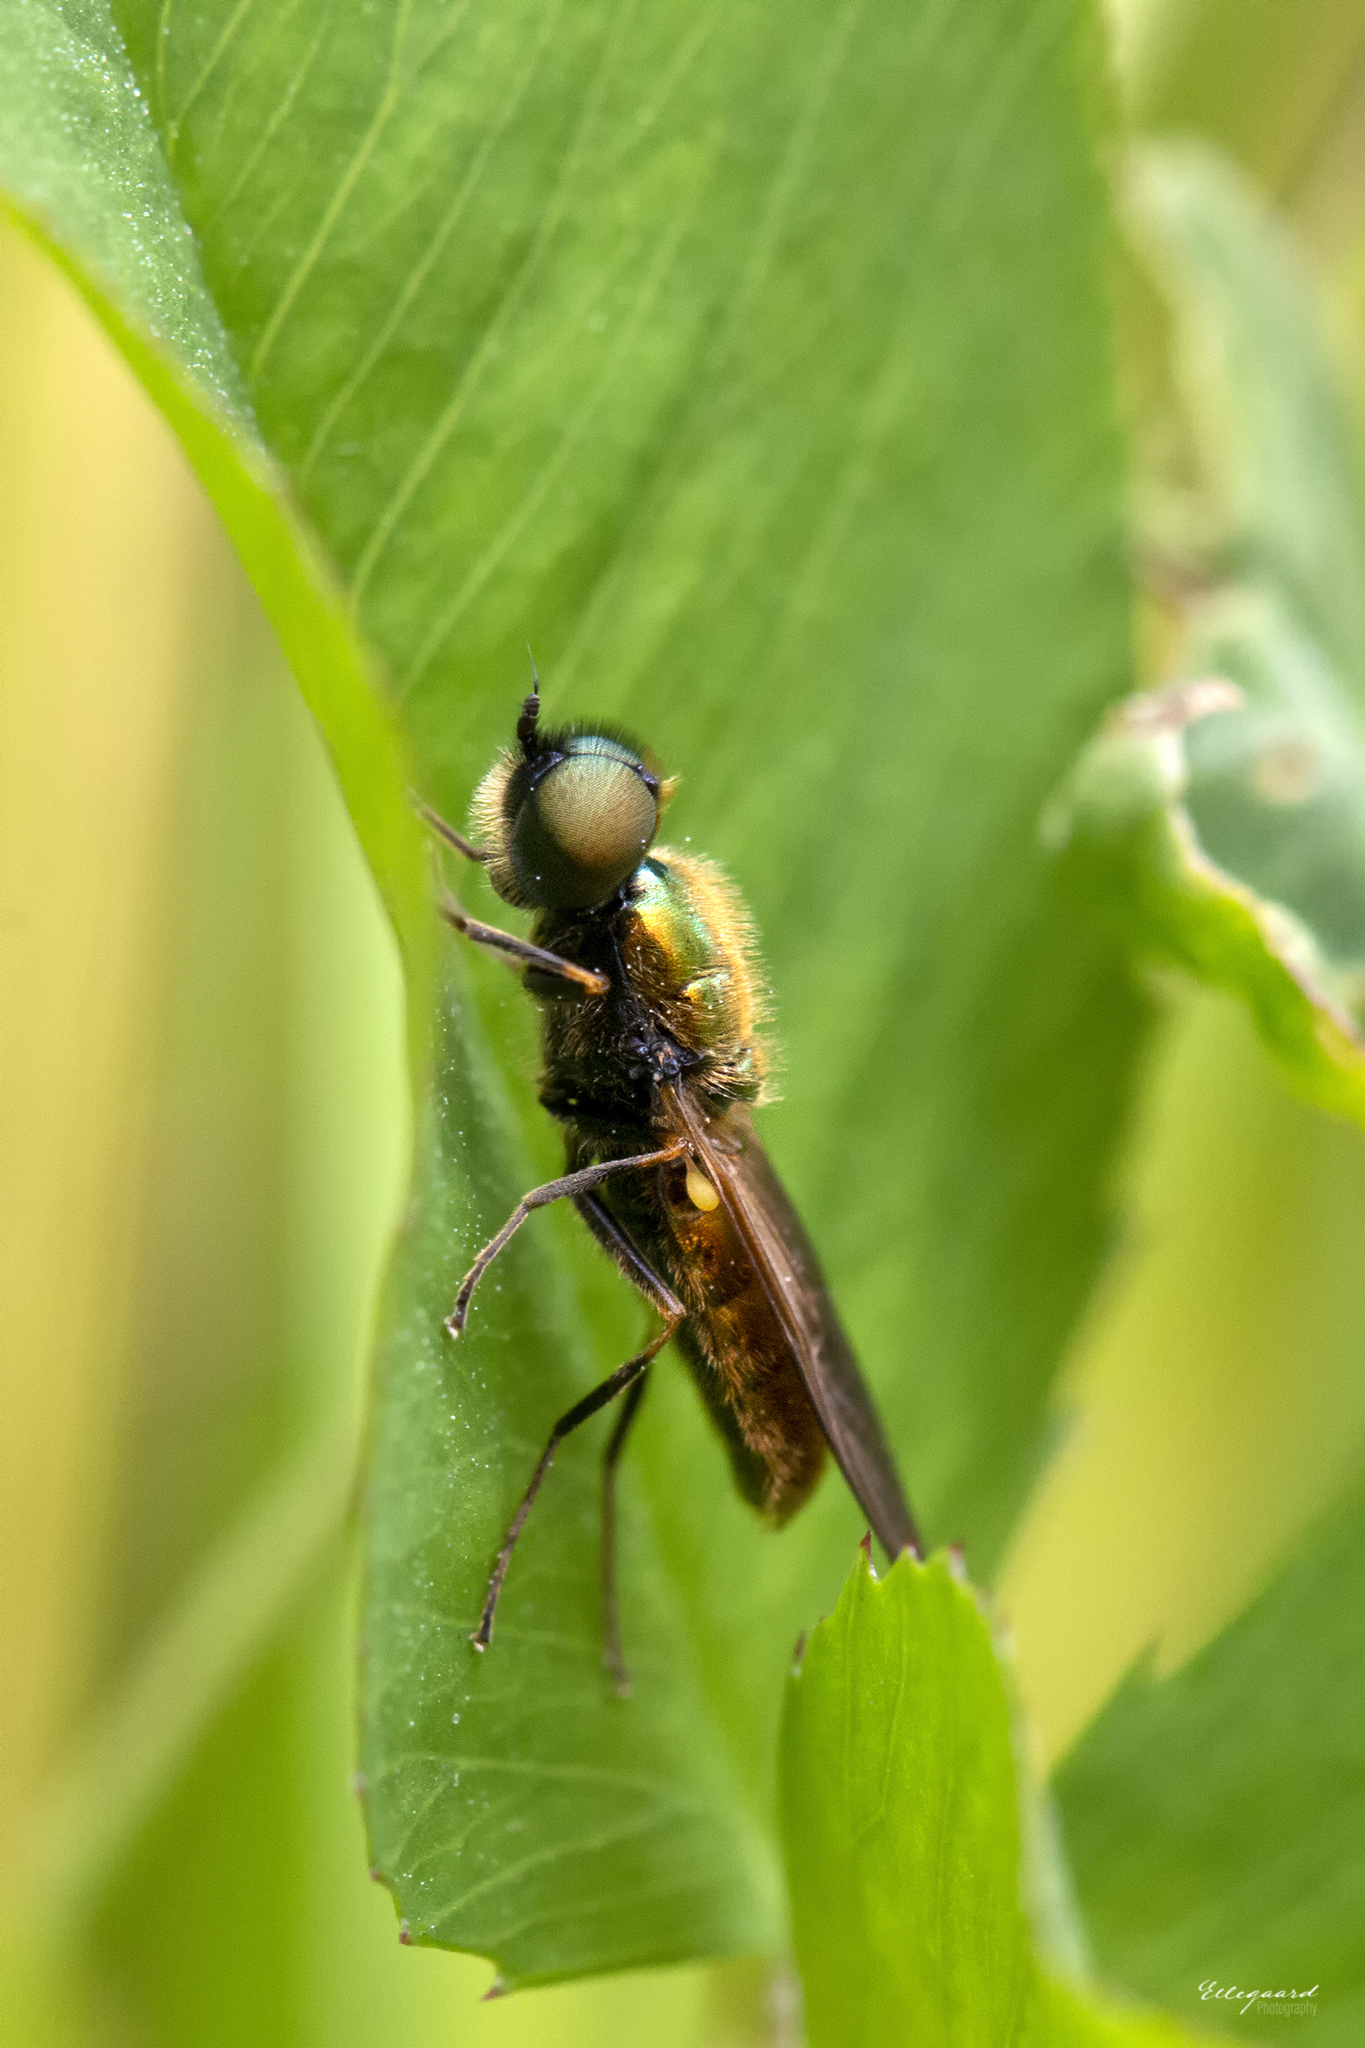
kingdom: Animalia
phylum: Arthropoda
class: Insecta
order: Diptera
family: Stratiomyidae
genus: Chloromyia
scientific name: Chloromyia formosa
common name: Soldier fly
